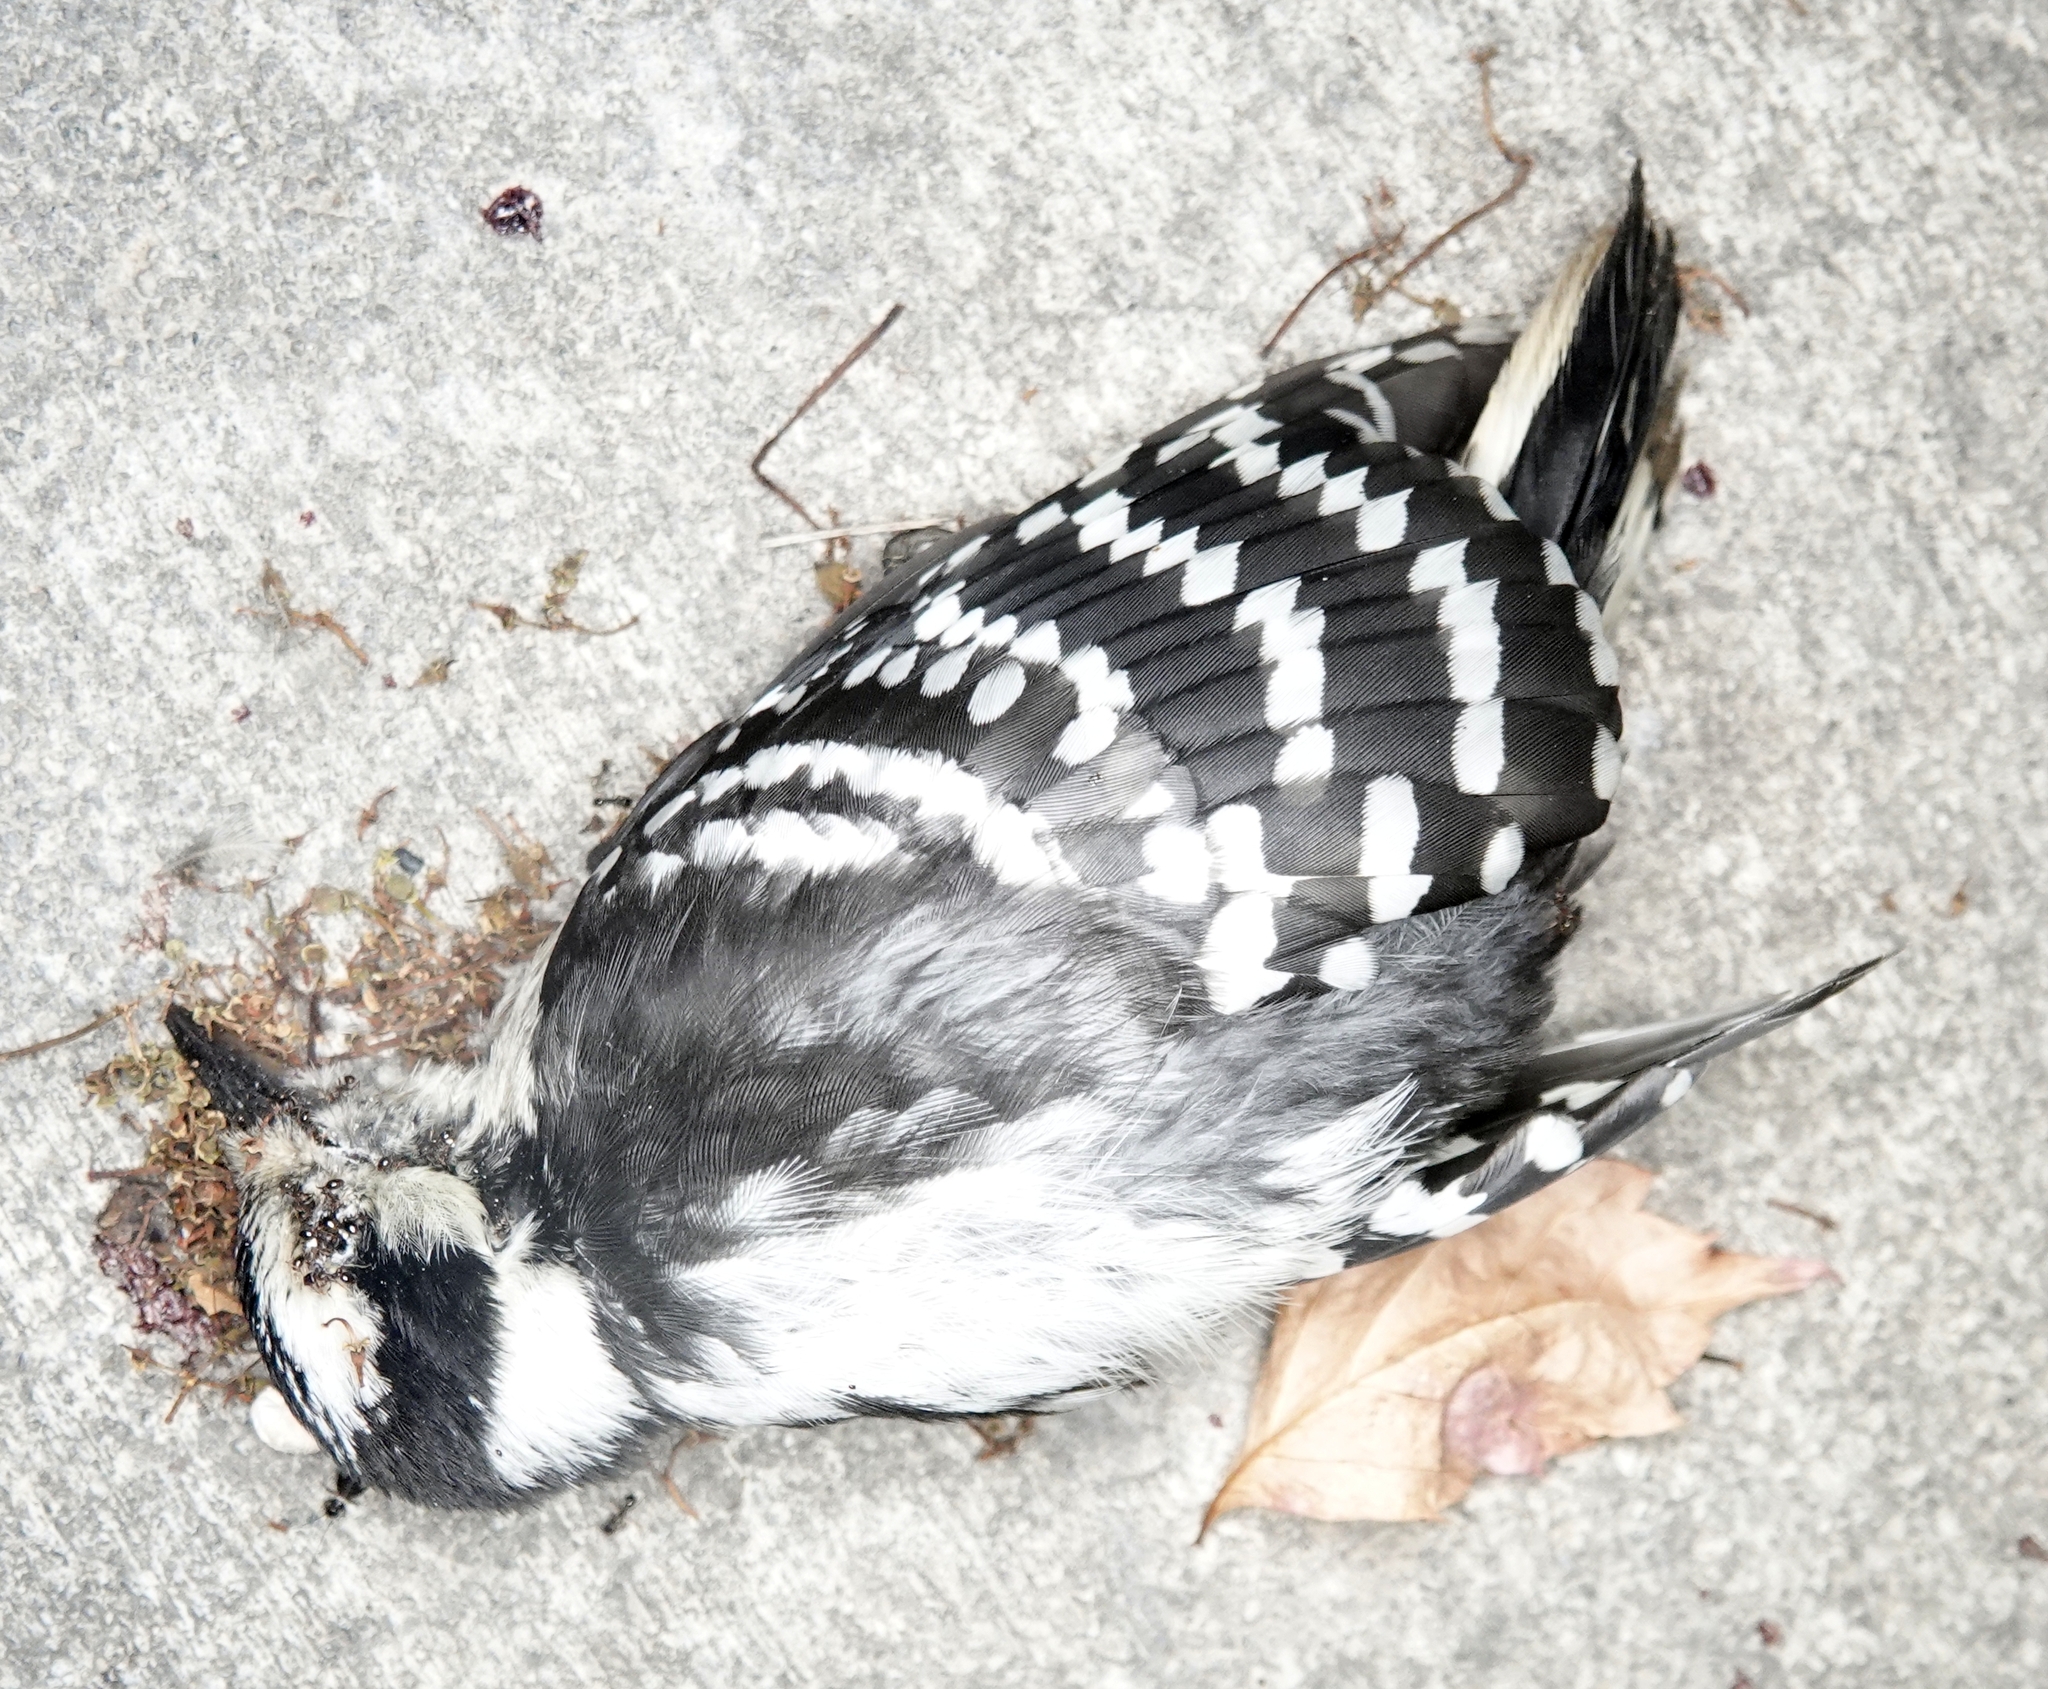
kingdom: Animalia
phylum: Chordata
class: Aves
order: Piciformes
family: Picidae
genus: Dryobates
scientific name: Dryobates pubescens
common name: Downy woodpecker
